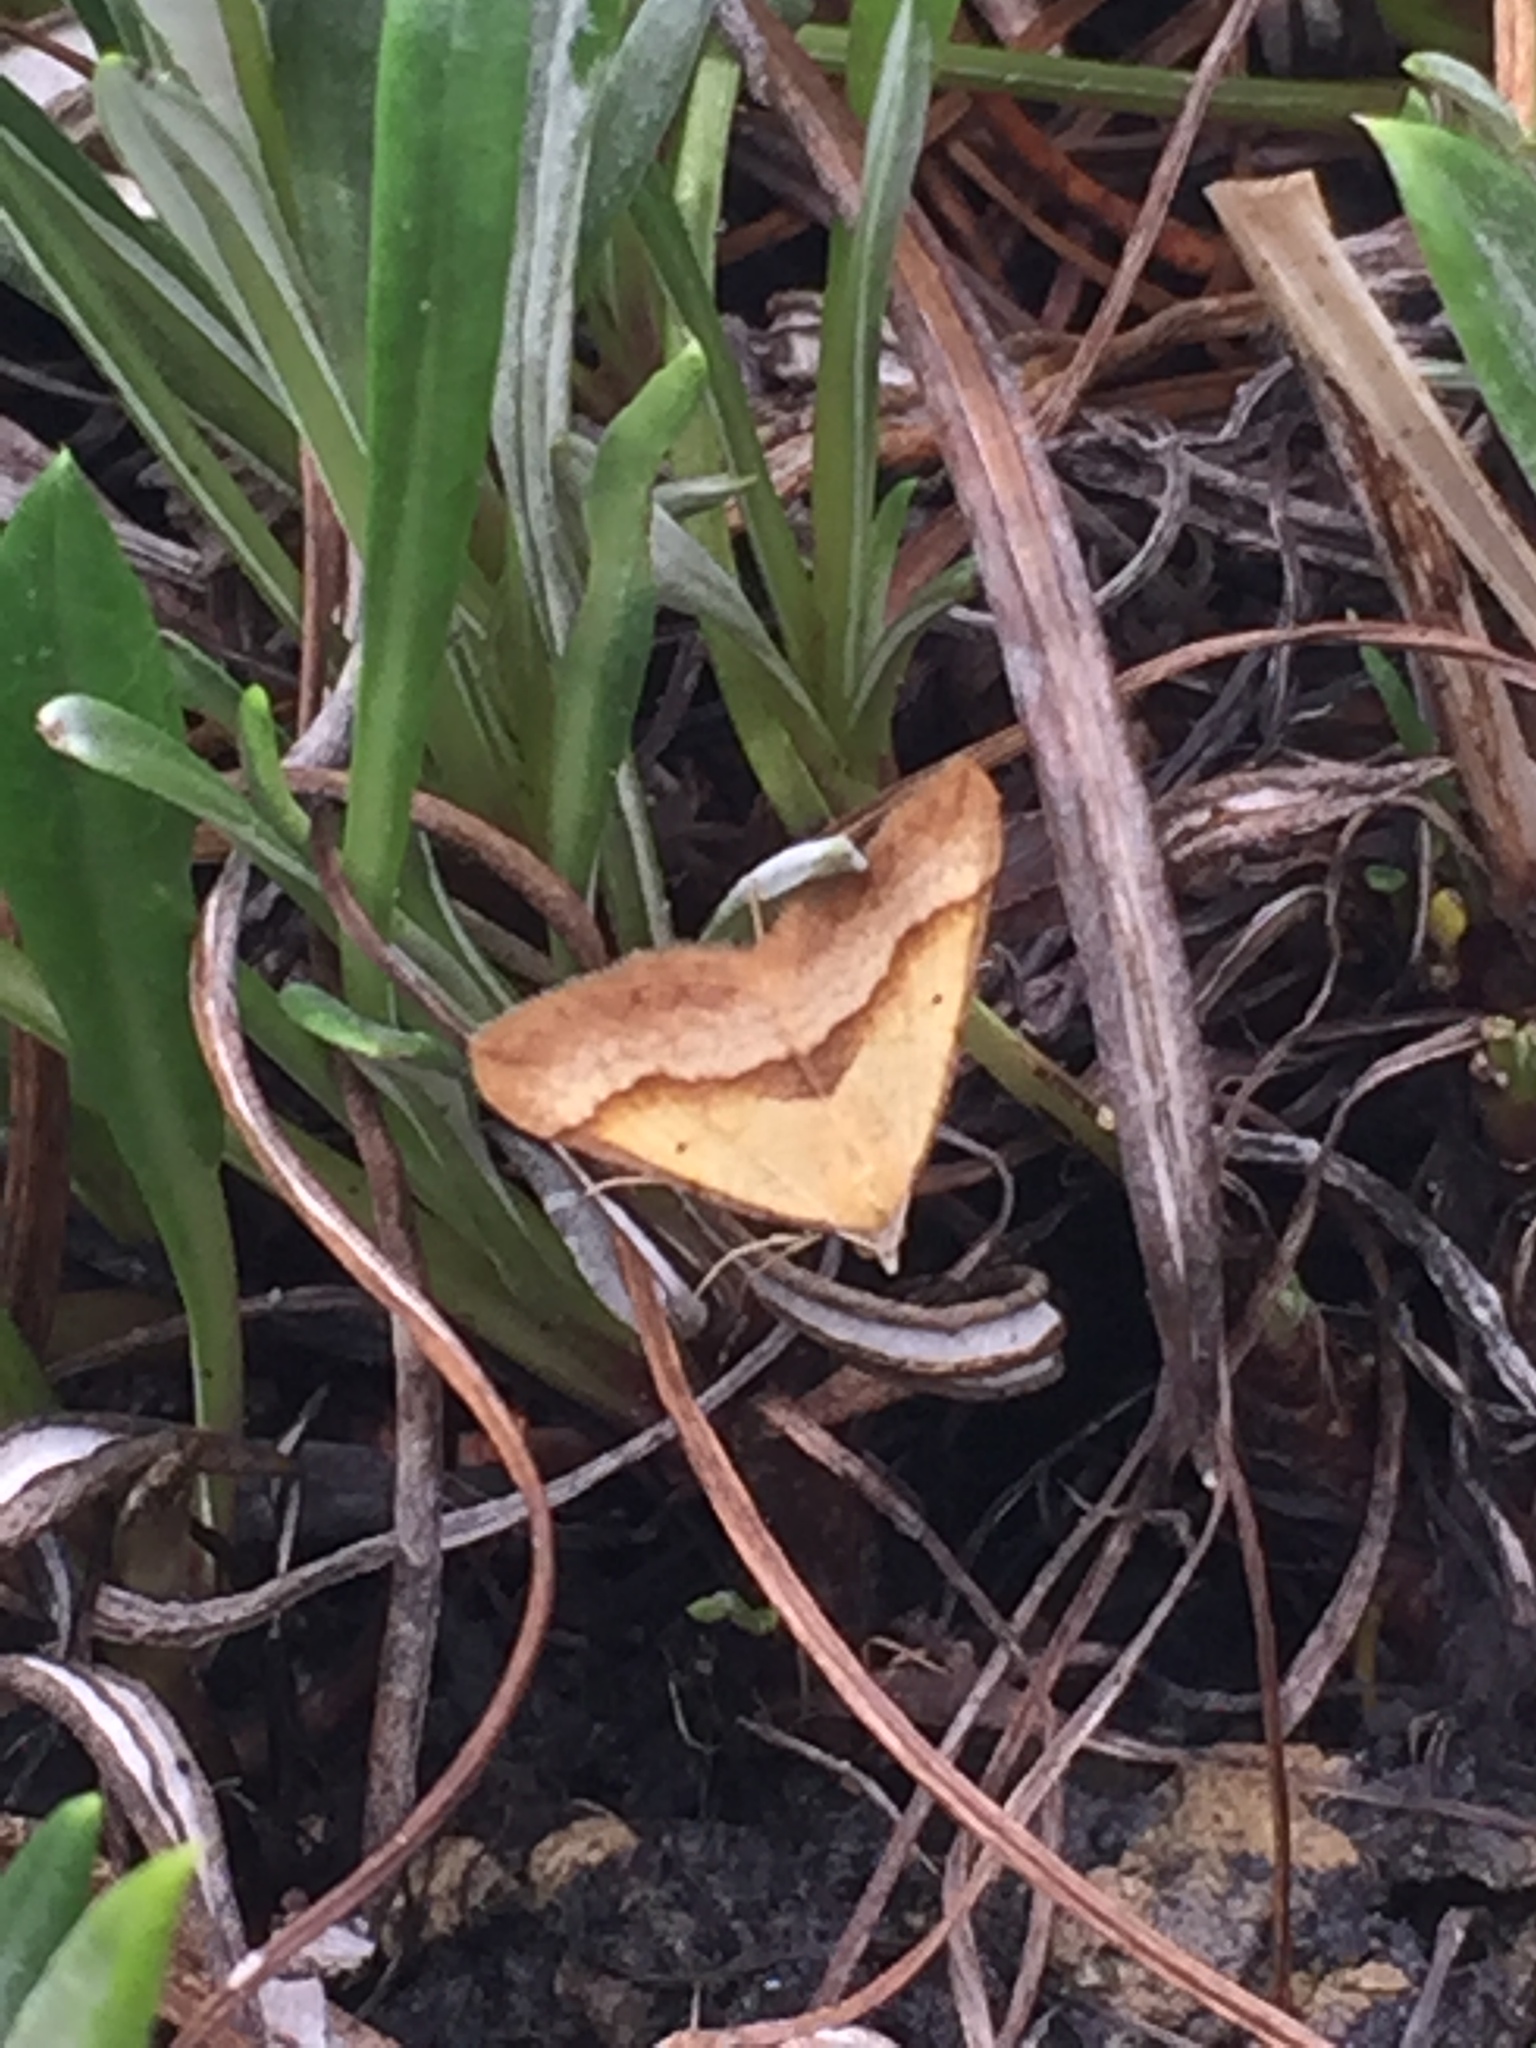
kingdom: Animalia
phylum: Arthropoda
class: Insecta
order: Lepidoptera
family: Geometridae
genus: Anachloris
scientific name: Anachloris subochraria
